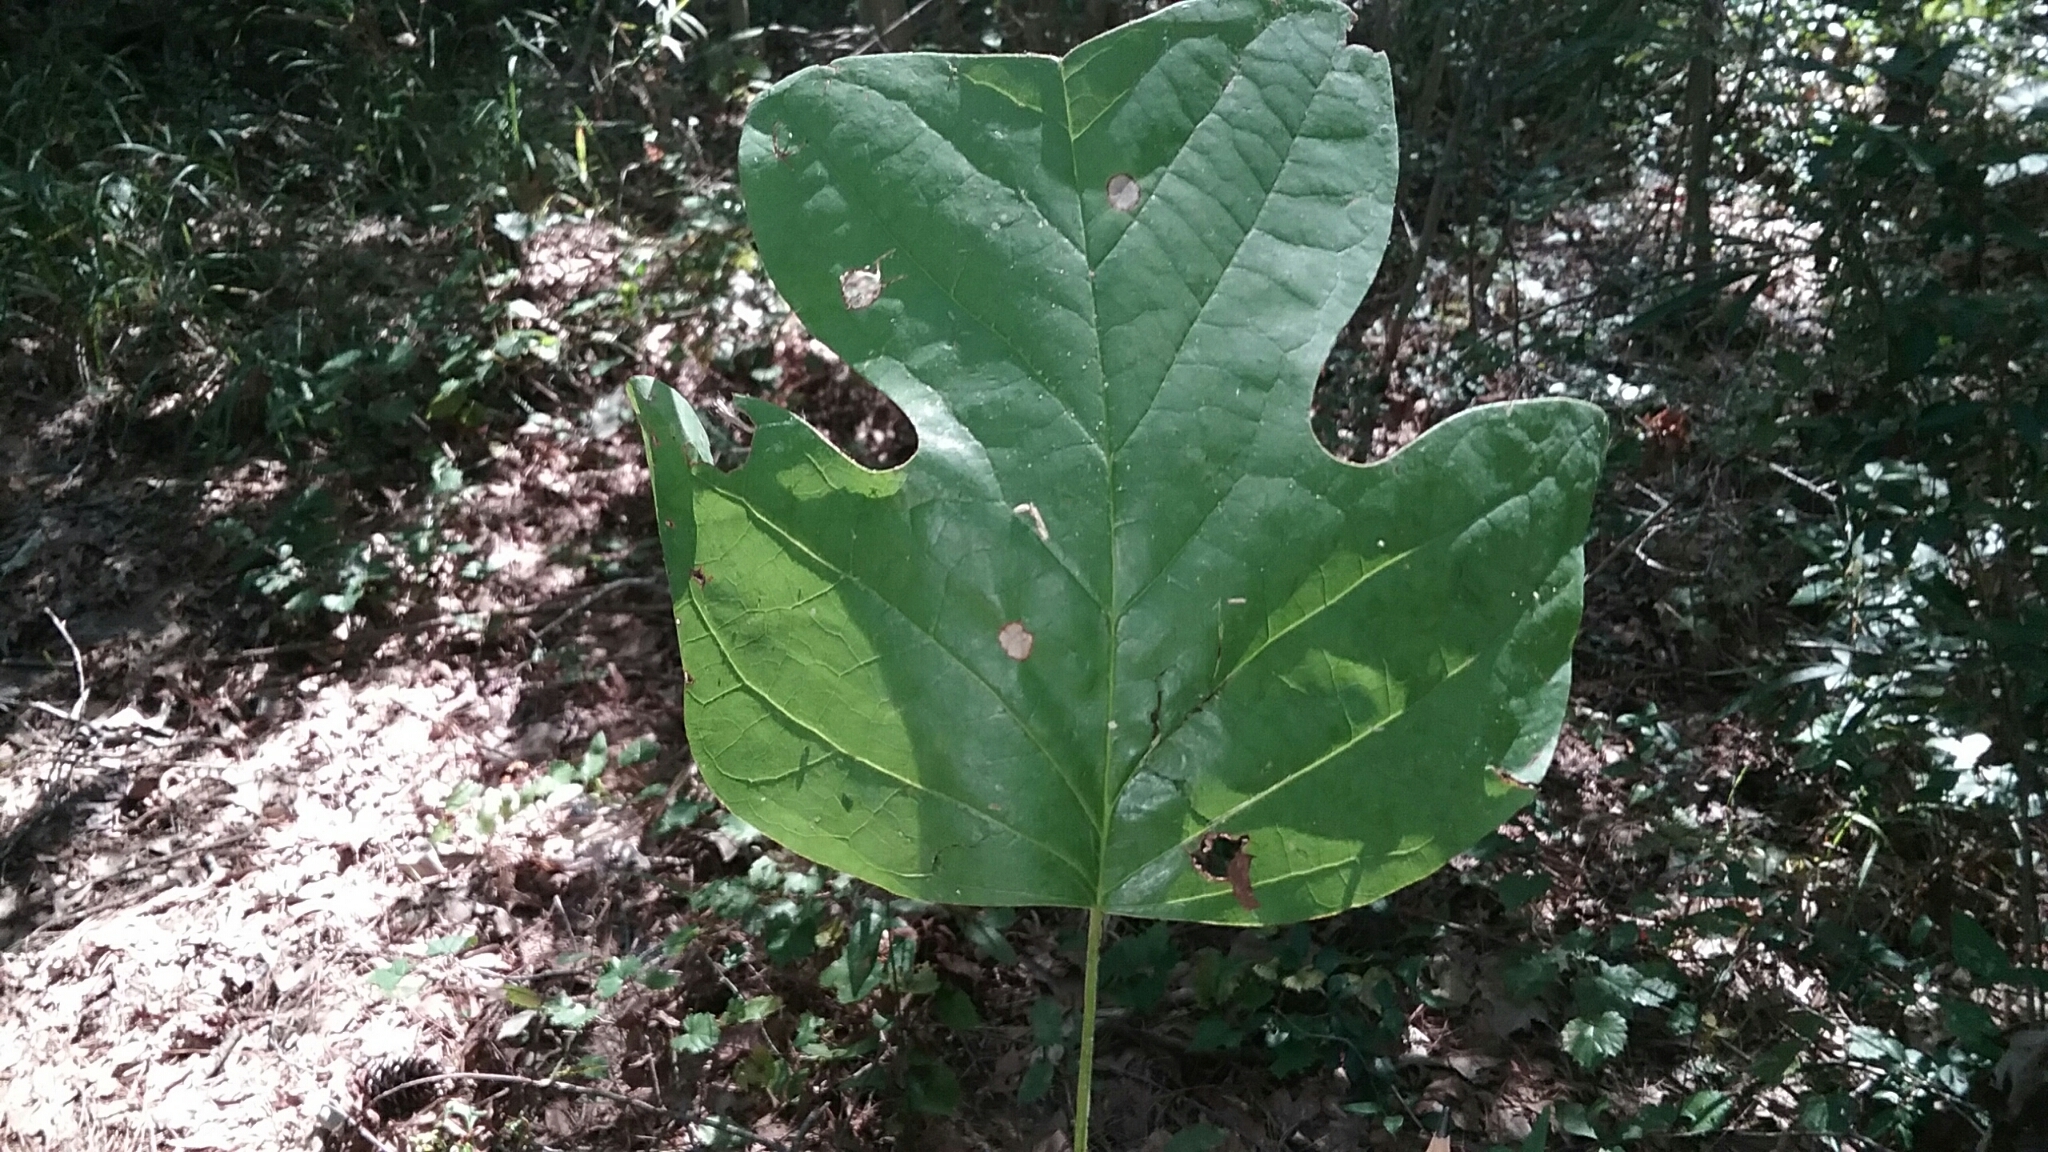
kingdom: Plantae
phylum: Tracheophyta
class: Magnoliopsida
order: Magnoliales
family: Magnoliaceae
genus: Liriodendron
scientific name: Liriodendron tulipifera
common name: Tulip tree
